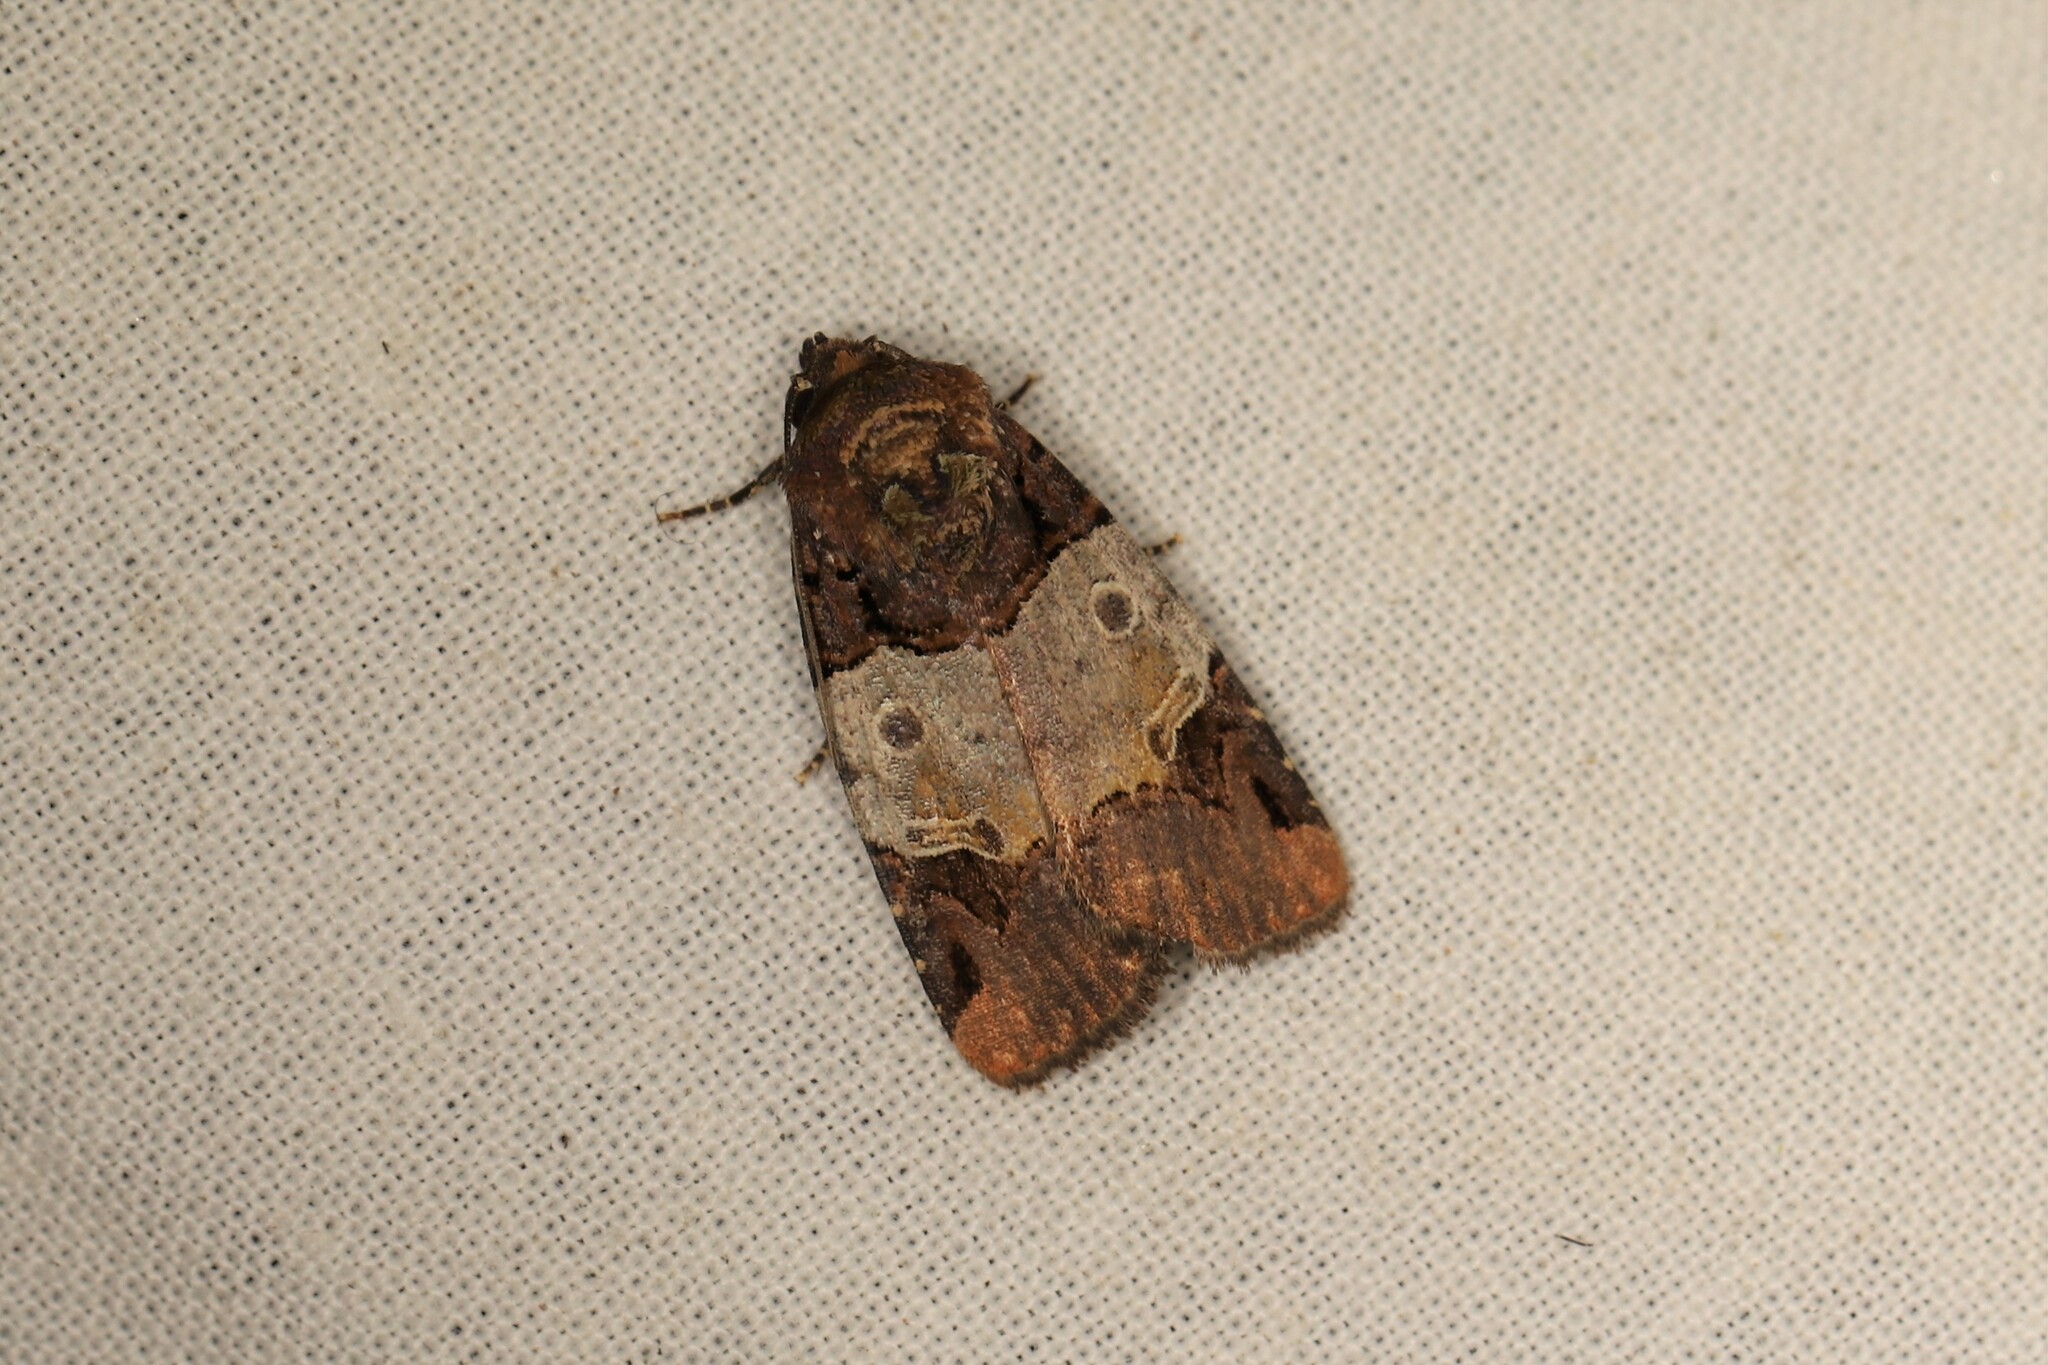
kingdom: Animalia
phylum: Arthropoda
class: Insecta
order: Lepidoptera
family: Noctuidae
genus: Hampsonodes
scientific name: Hampsonodes naevia
